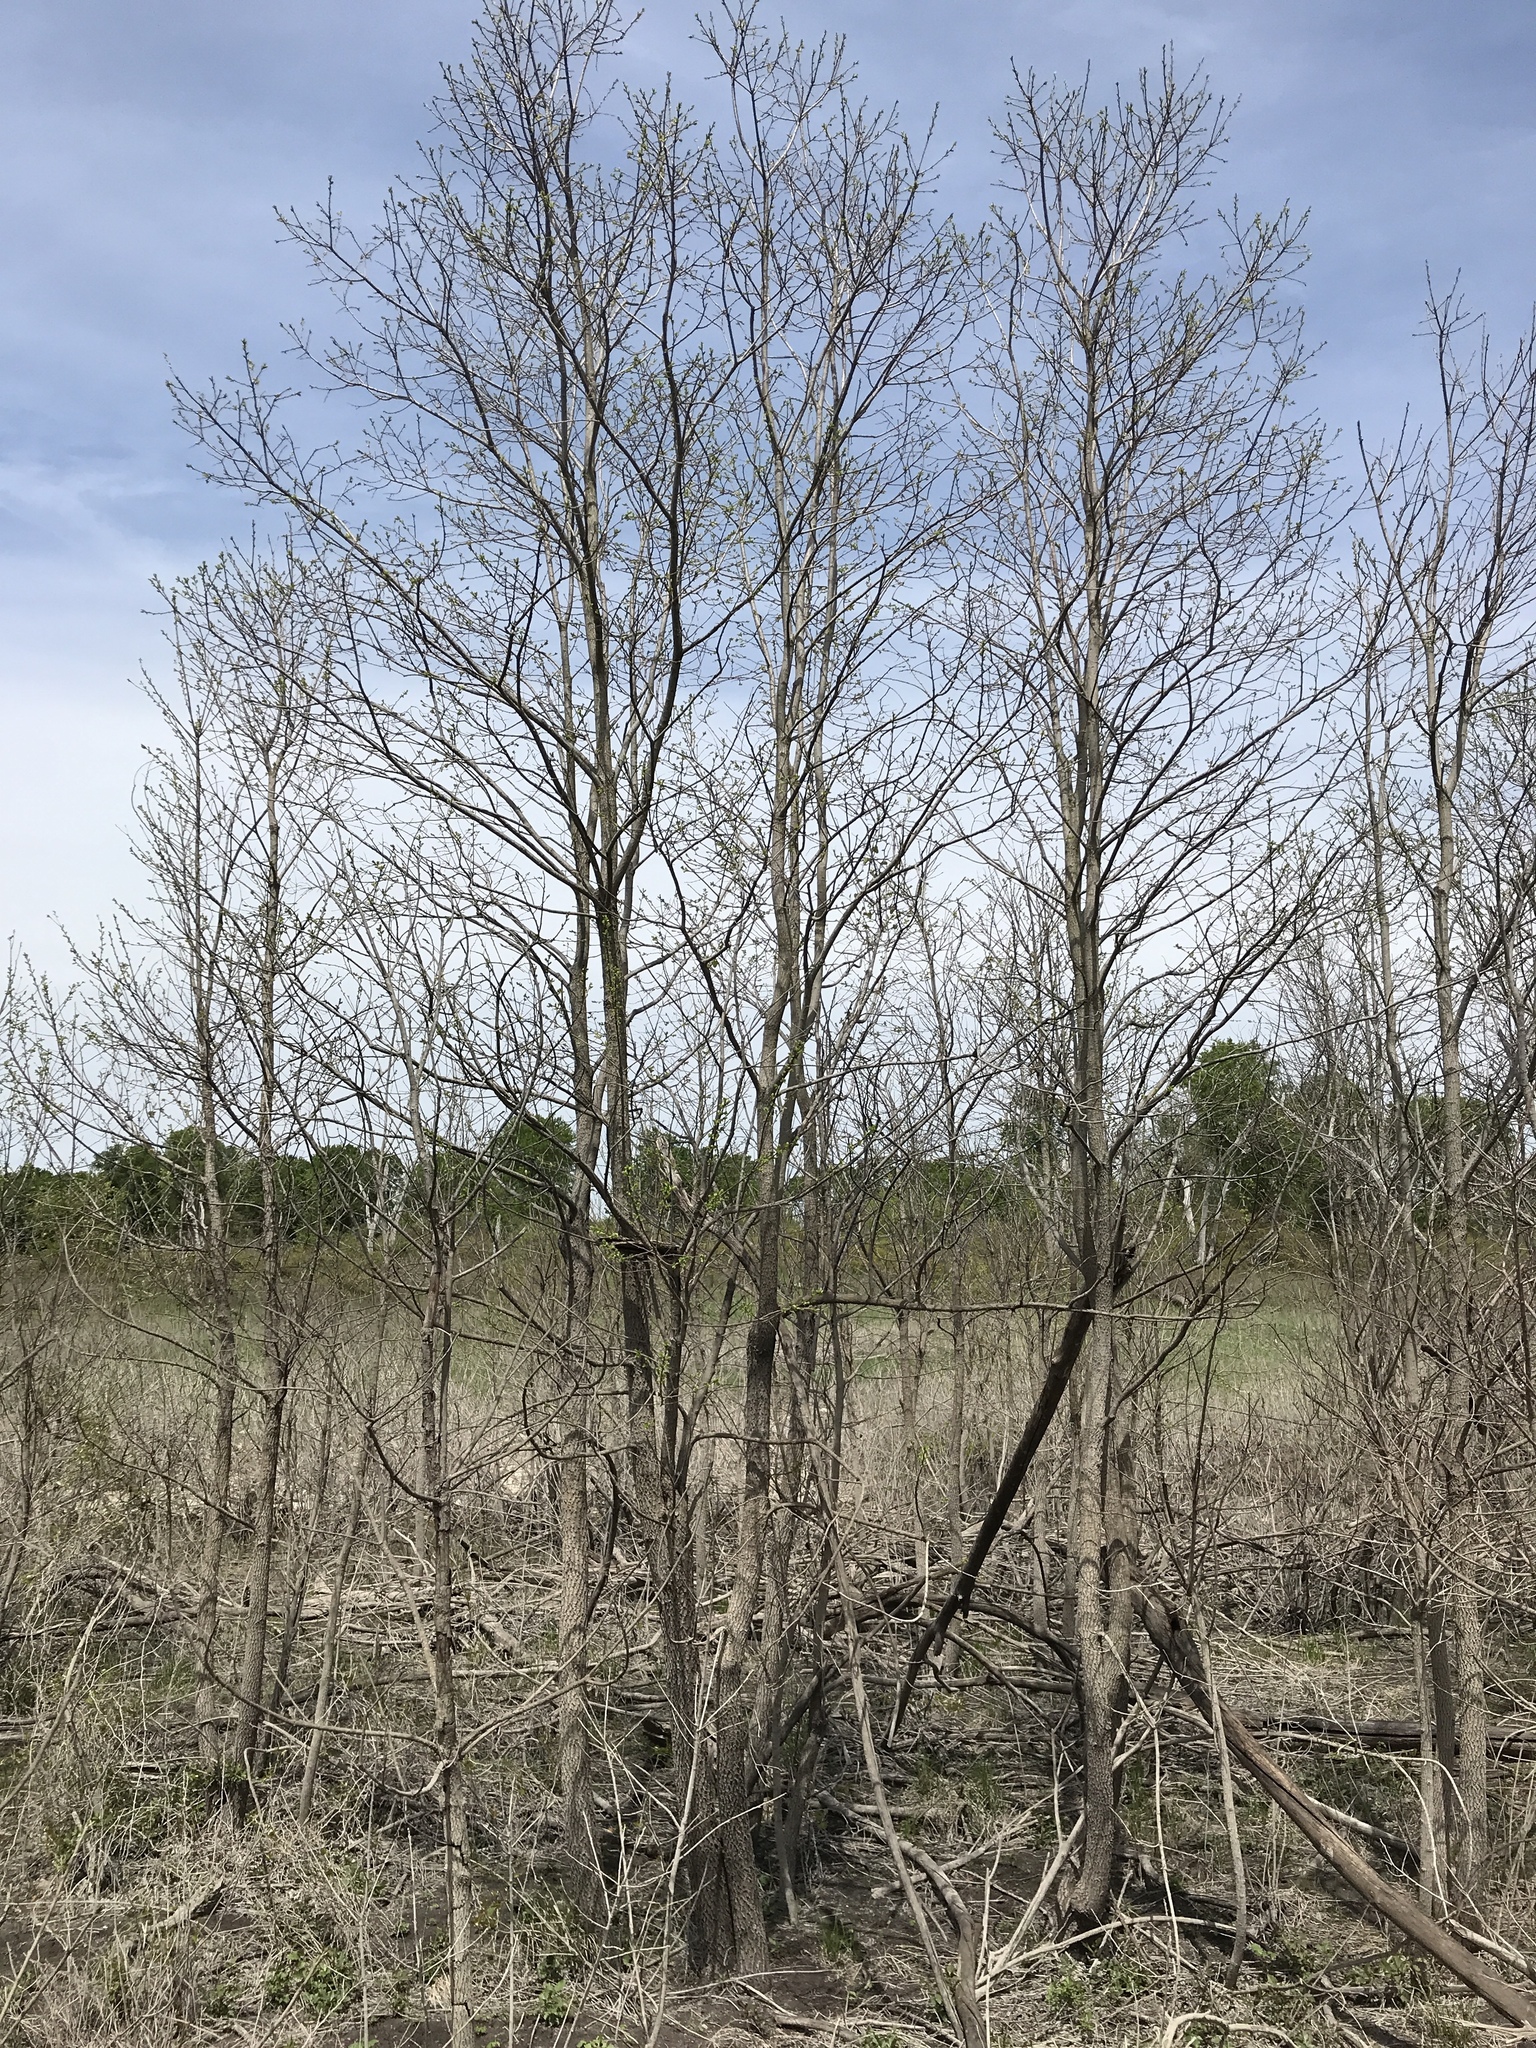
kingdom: Plantae
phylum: Tracheophyta
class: Magnoliopsida
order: Ericales
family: Ebenaceae
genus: Diospyros
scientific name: Diospyros virginiana
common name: Persimmon
